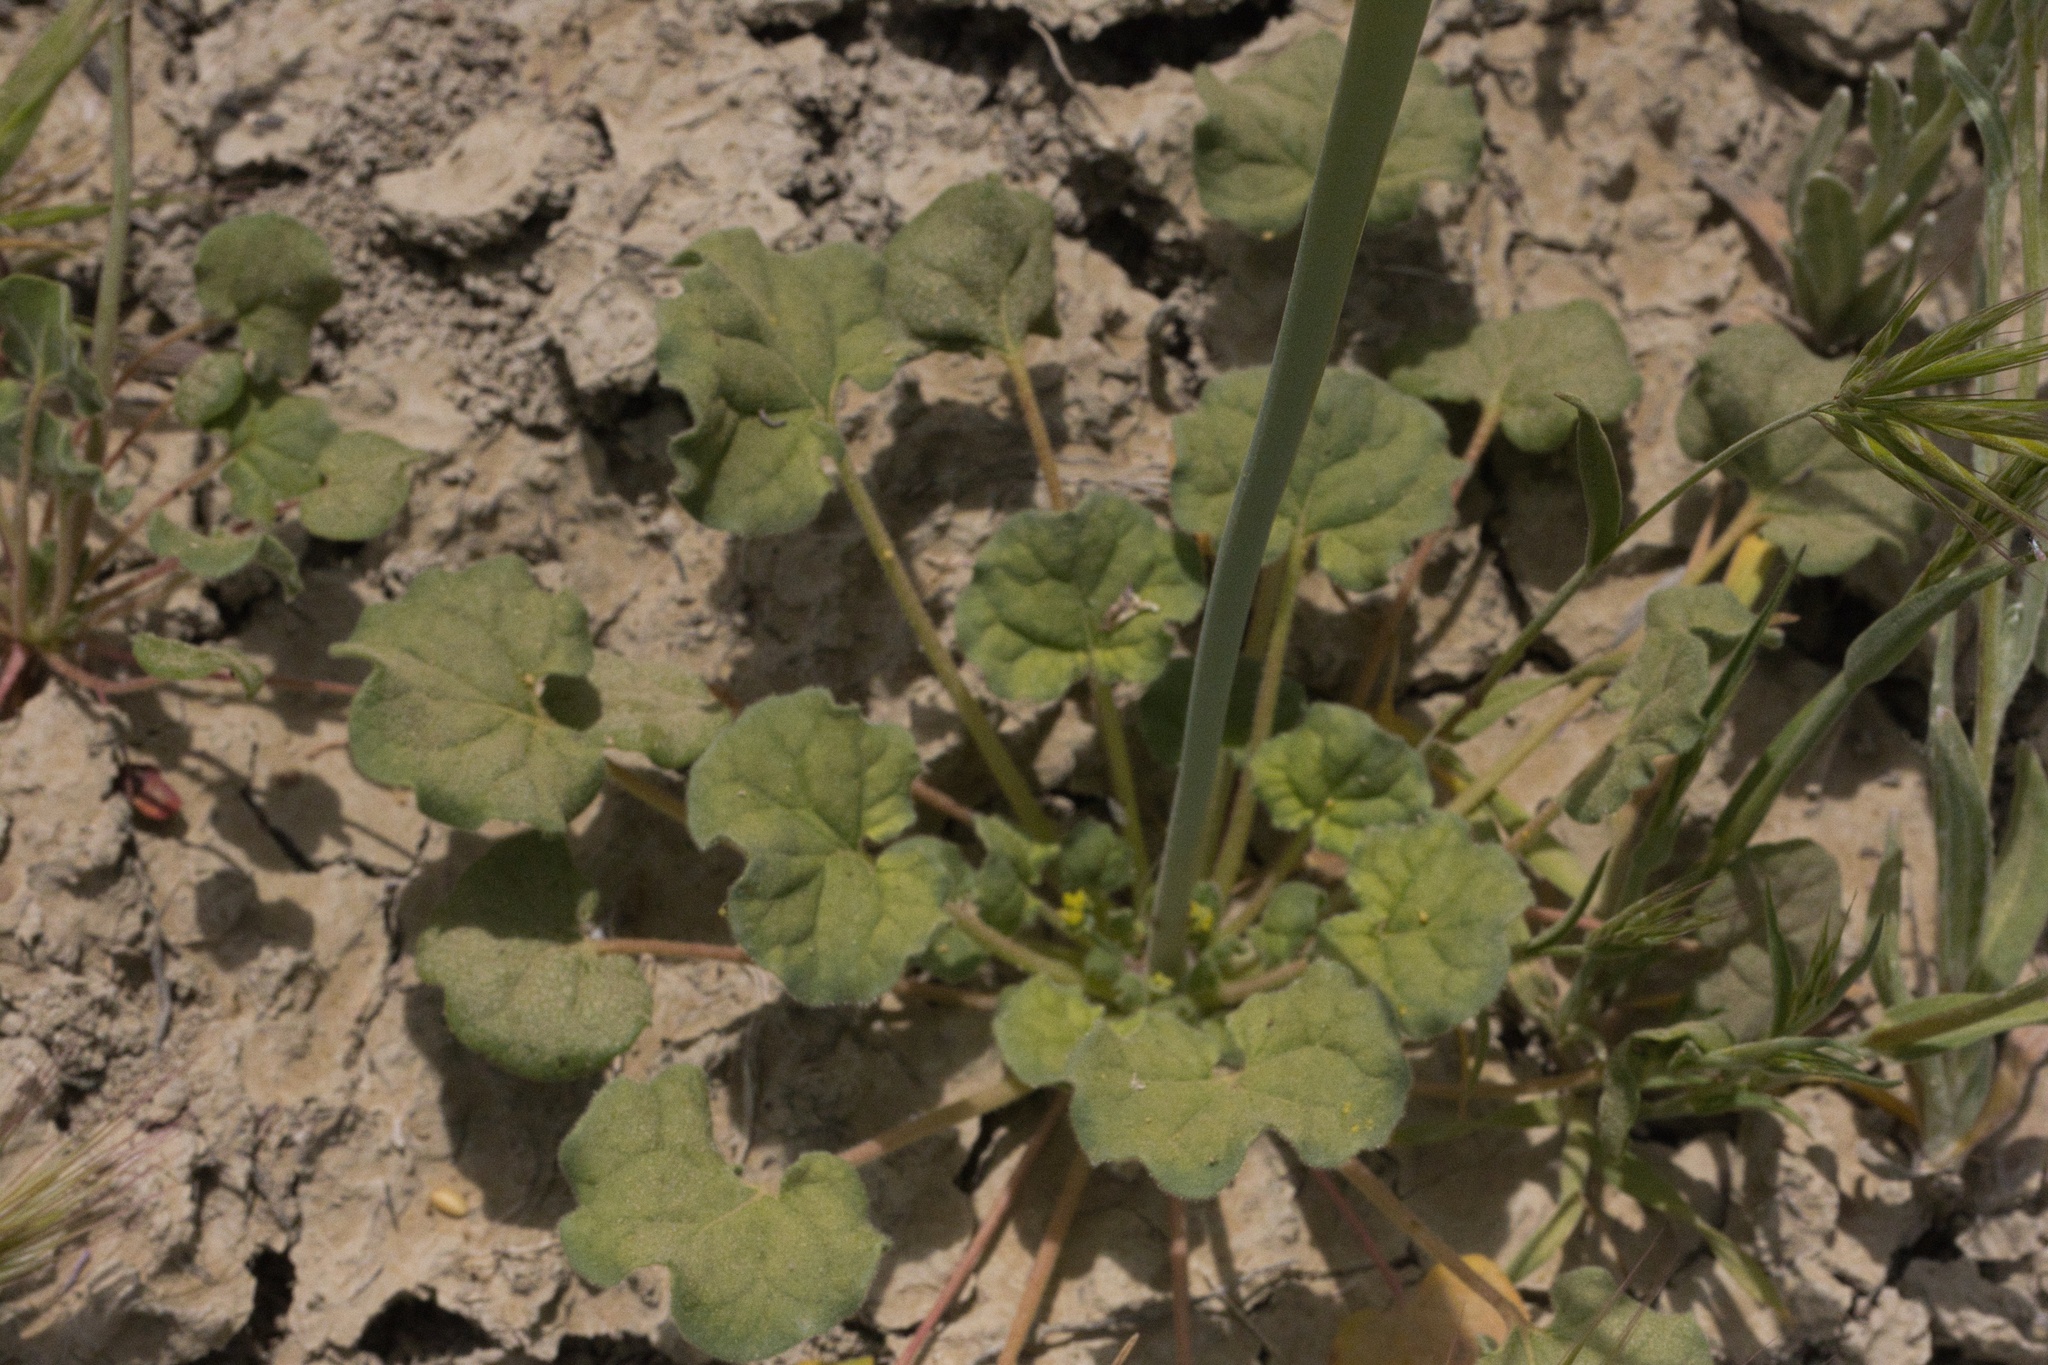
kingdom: Plantae
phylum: Tracheophyta
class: Magnoliopsida
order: Caryophyllales
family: Polygonaceae
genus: Eriogonum
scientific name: Eriogonum clavatum
